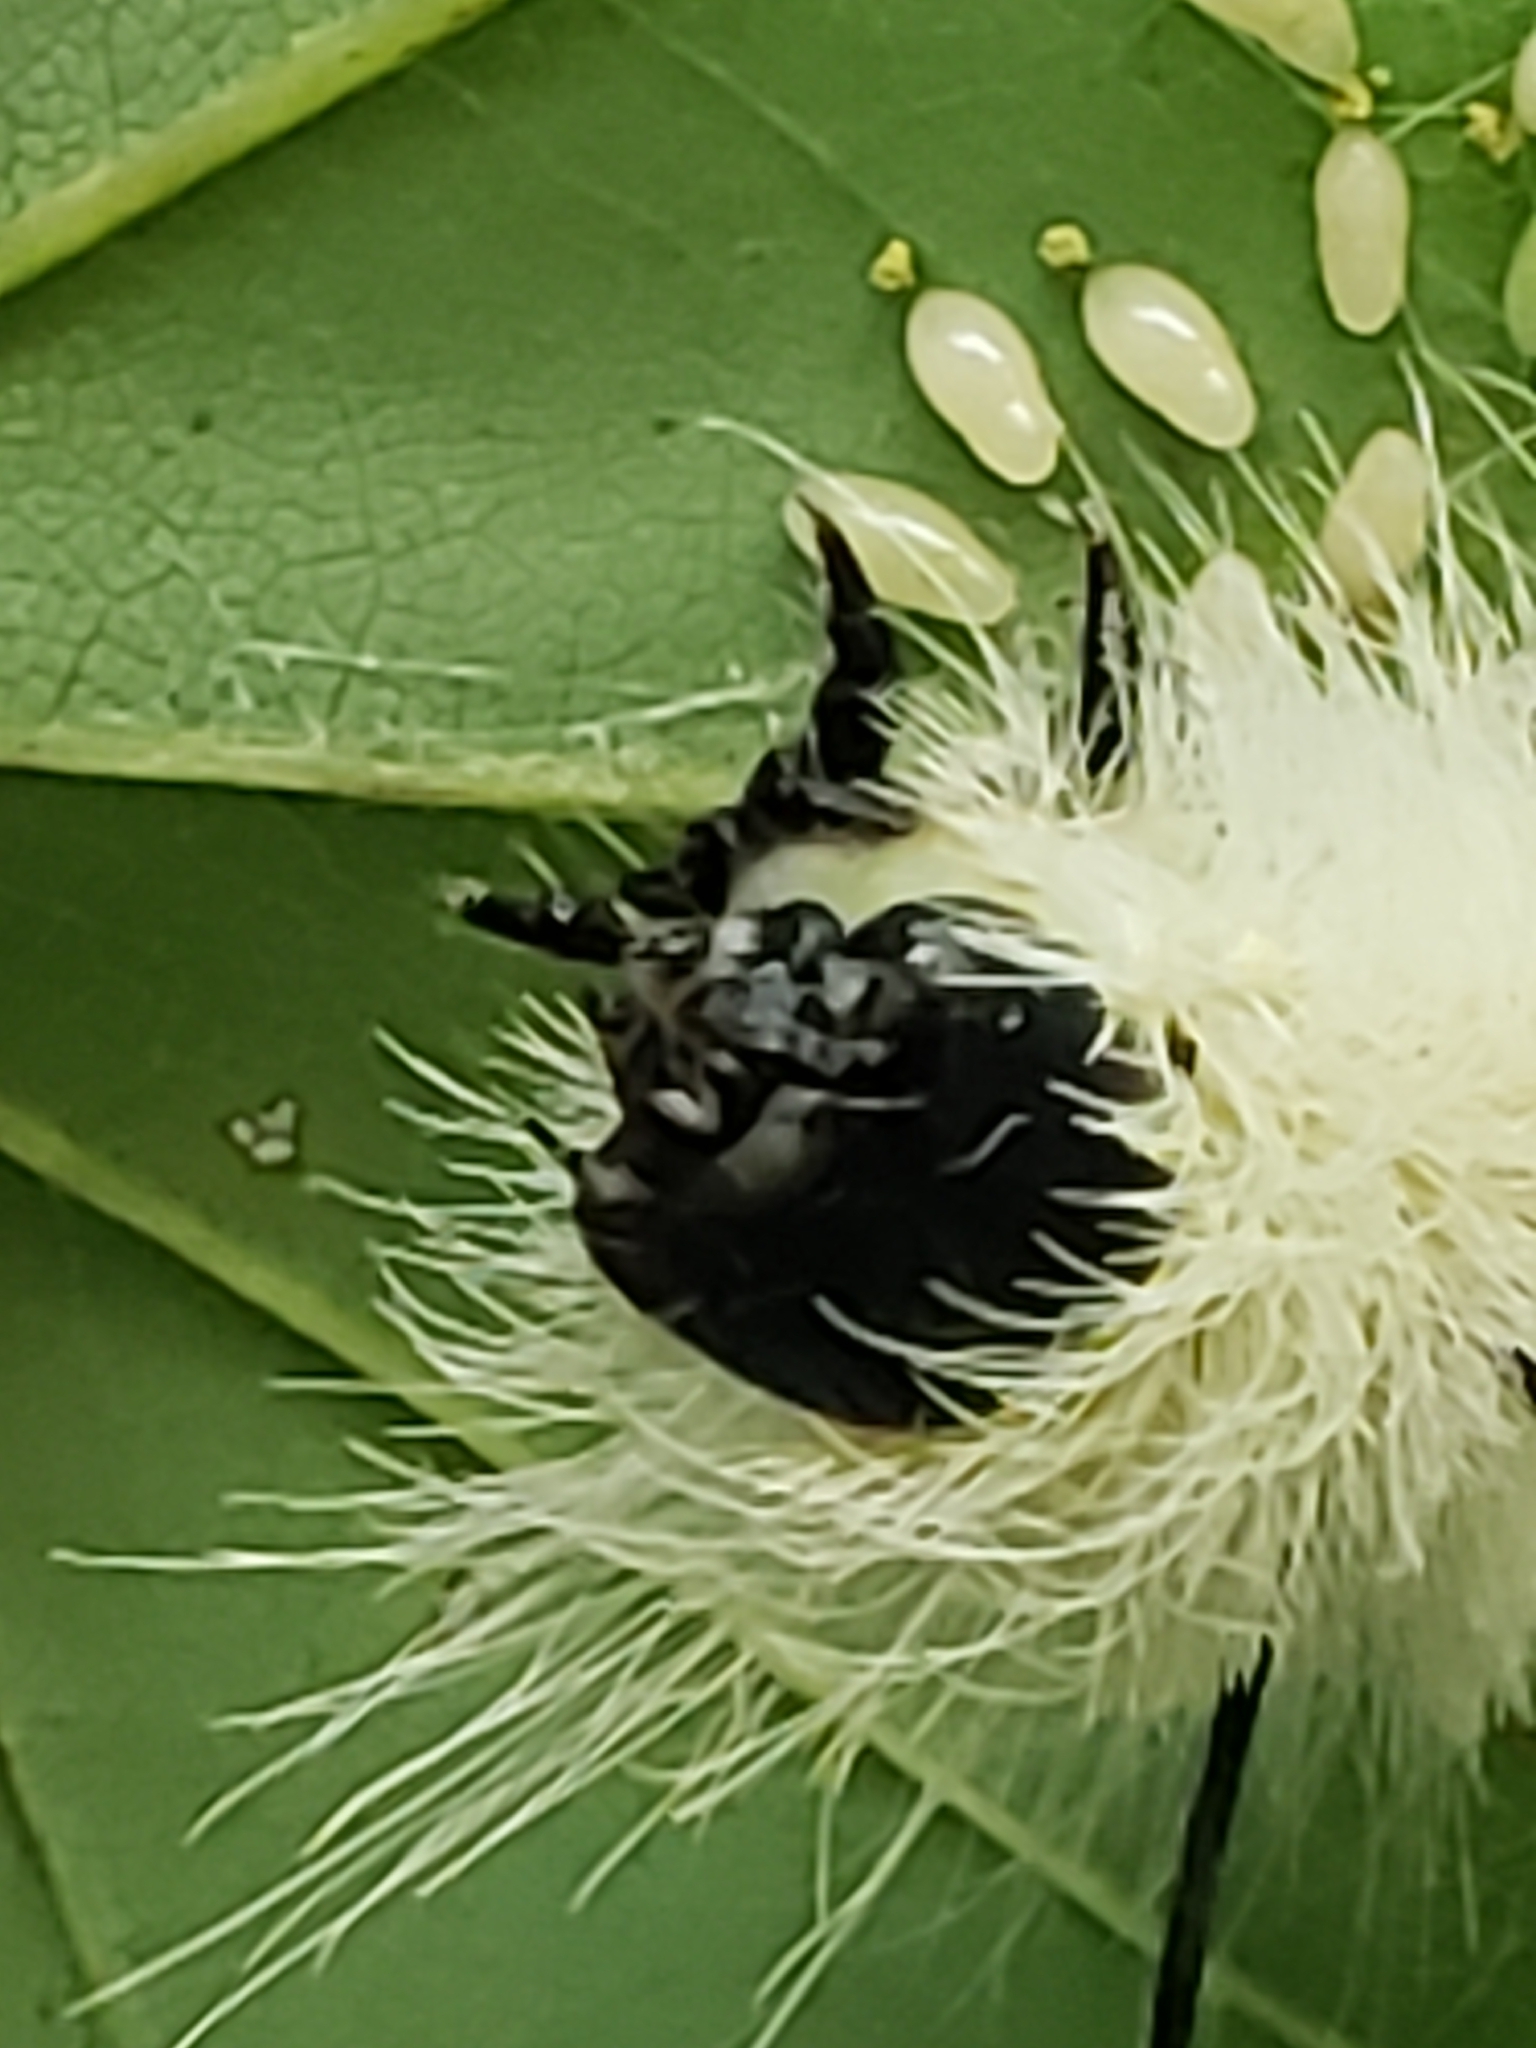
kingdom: Animalia
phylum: Arthropoda
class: Insecta
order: Lepidoptera
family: Noctuidae
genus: Acronicta
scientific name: Acronicta americana
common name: American dagger
